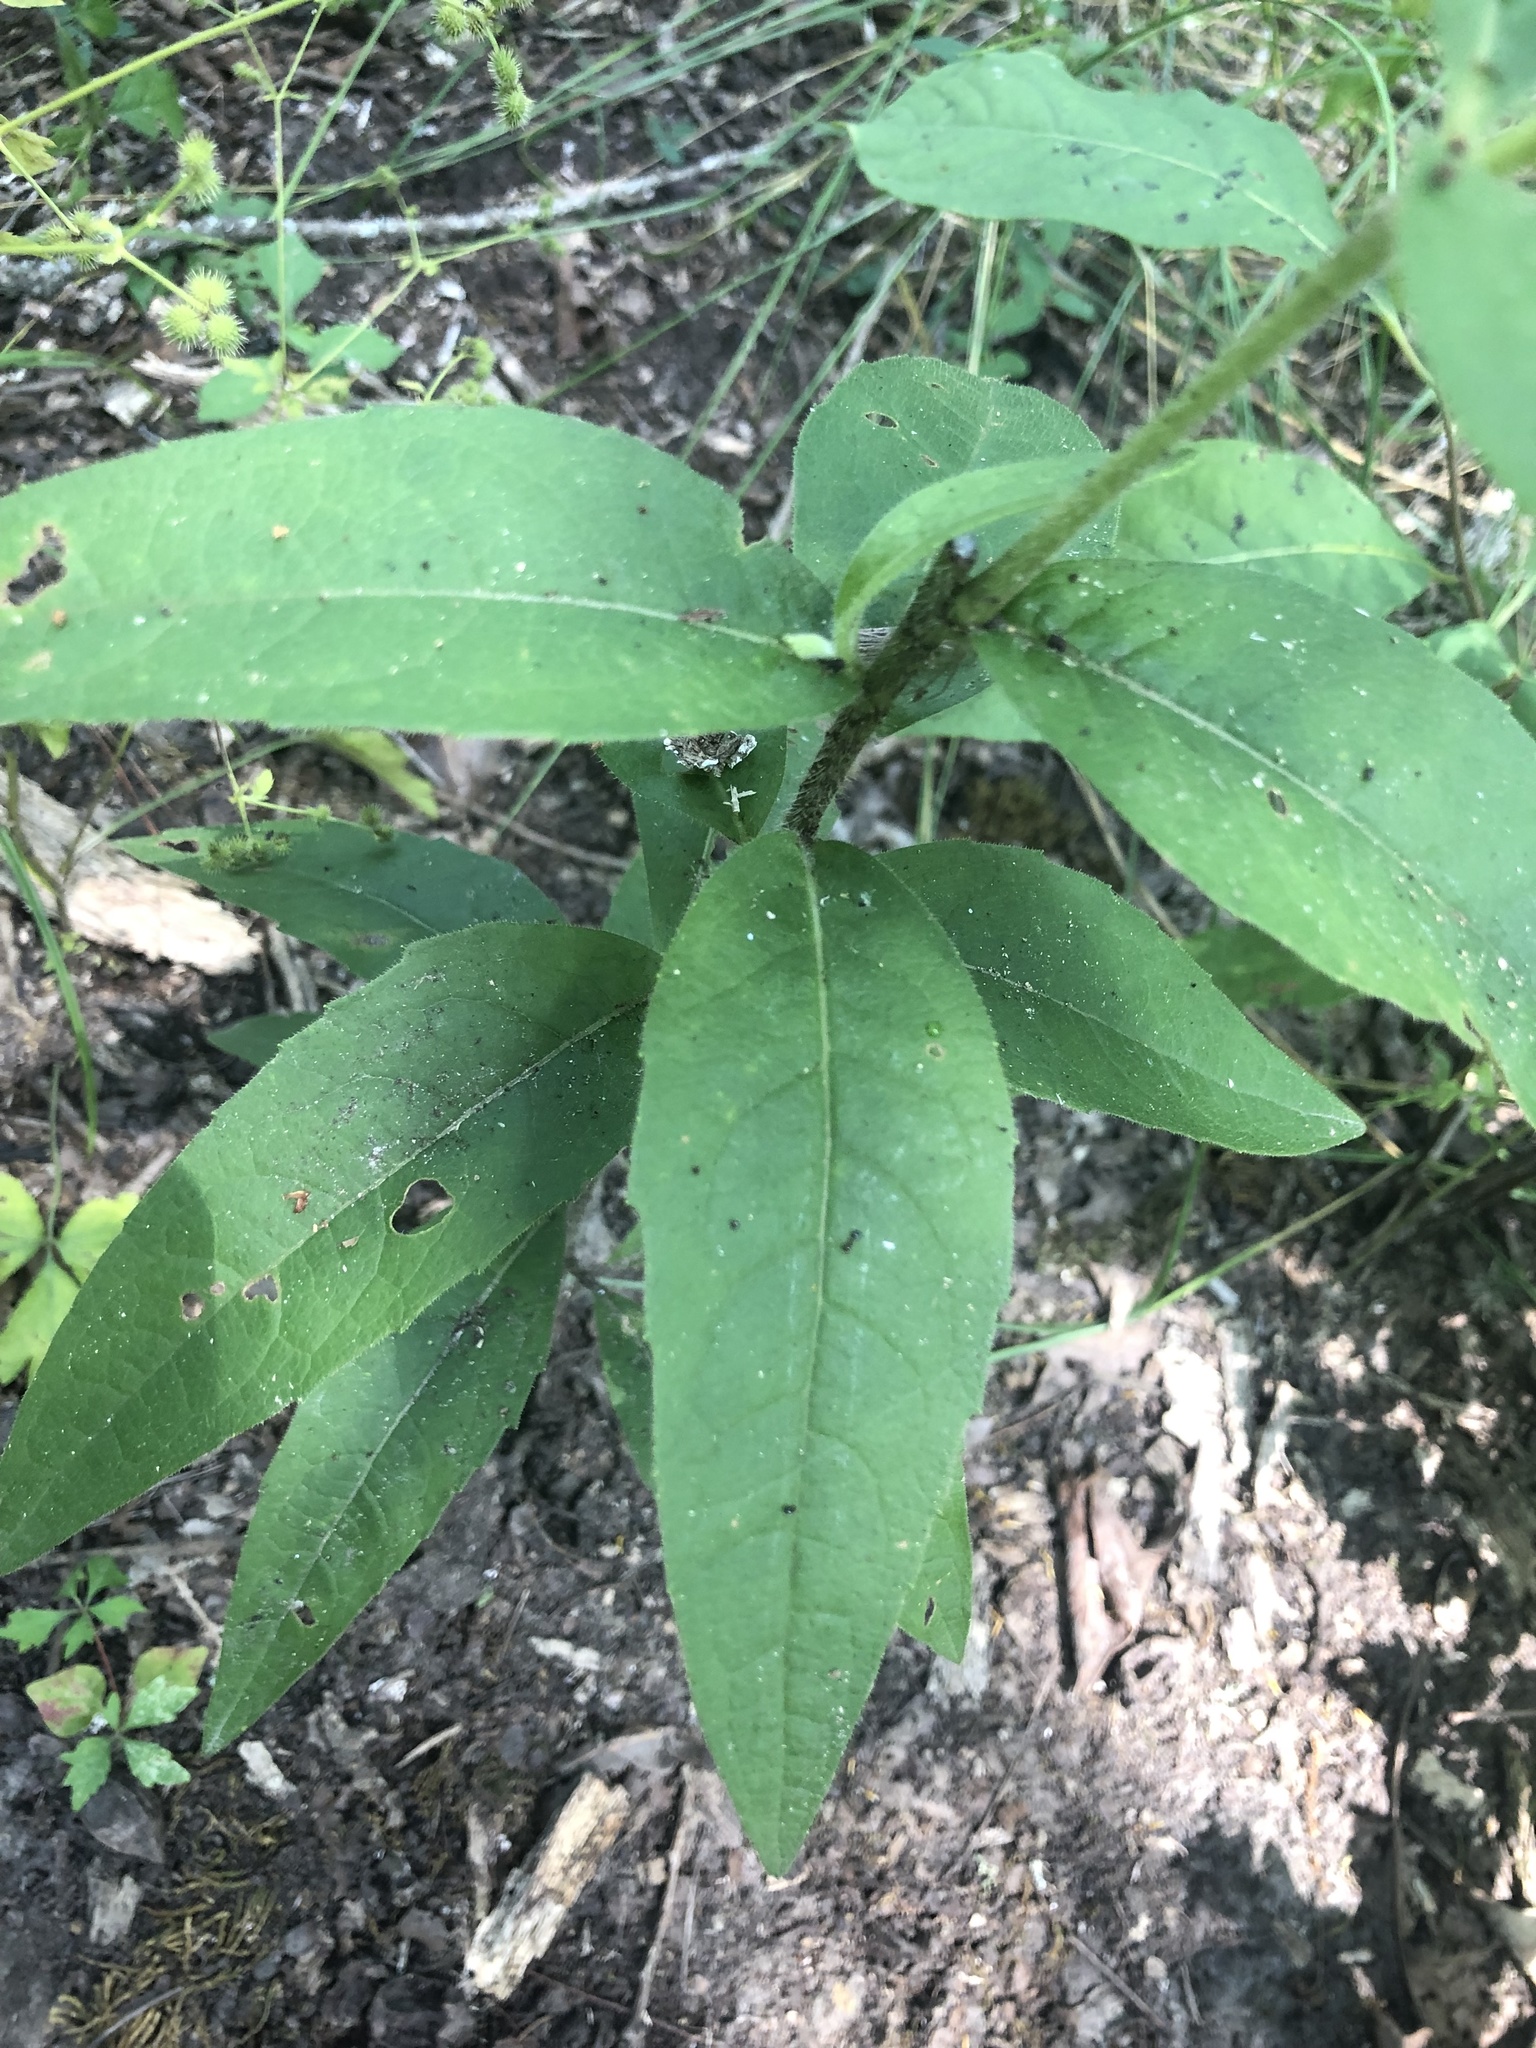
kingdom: Plantae
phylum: Tracheophyta
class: Magnoliopsida
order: Asterales
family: Asteraceae
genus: Silphium
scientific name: Silphium asperrimum
